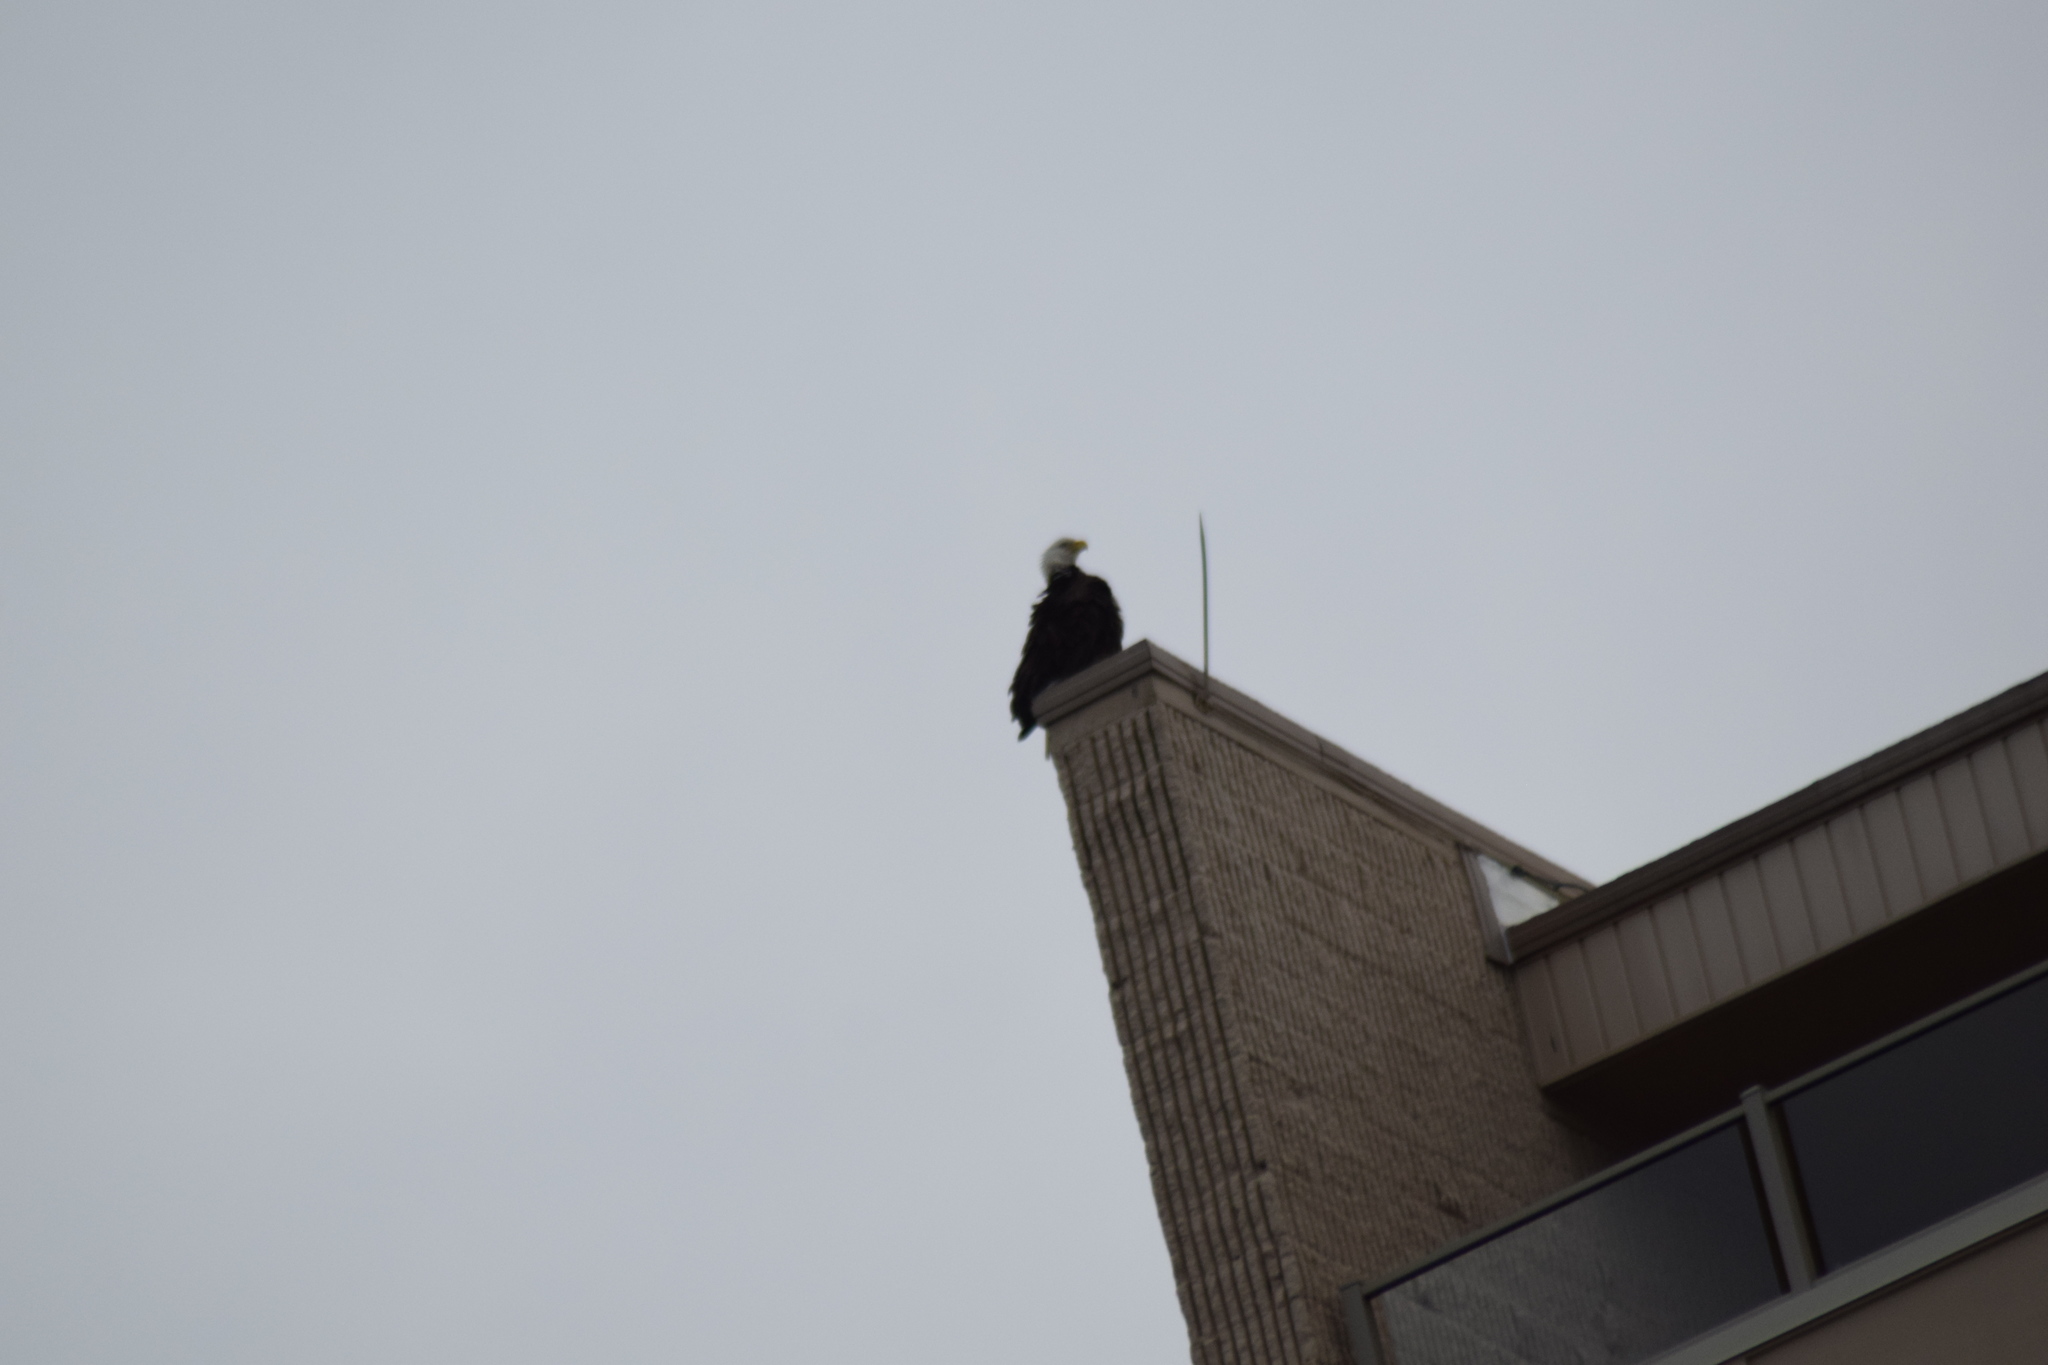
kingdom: Animalia
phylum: Chordata
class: Aves
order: Accipitriformes
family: Accipitridae
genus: Haliaeetus
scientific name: Haliaeetus leucocephalus
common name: Bald eagle
